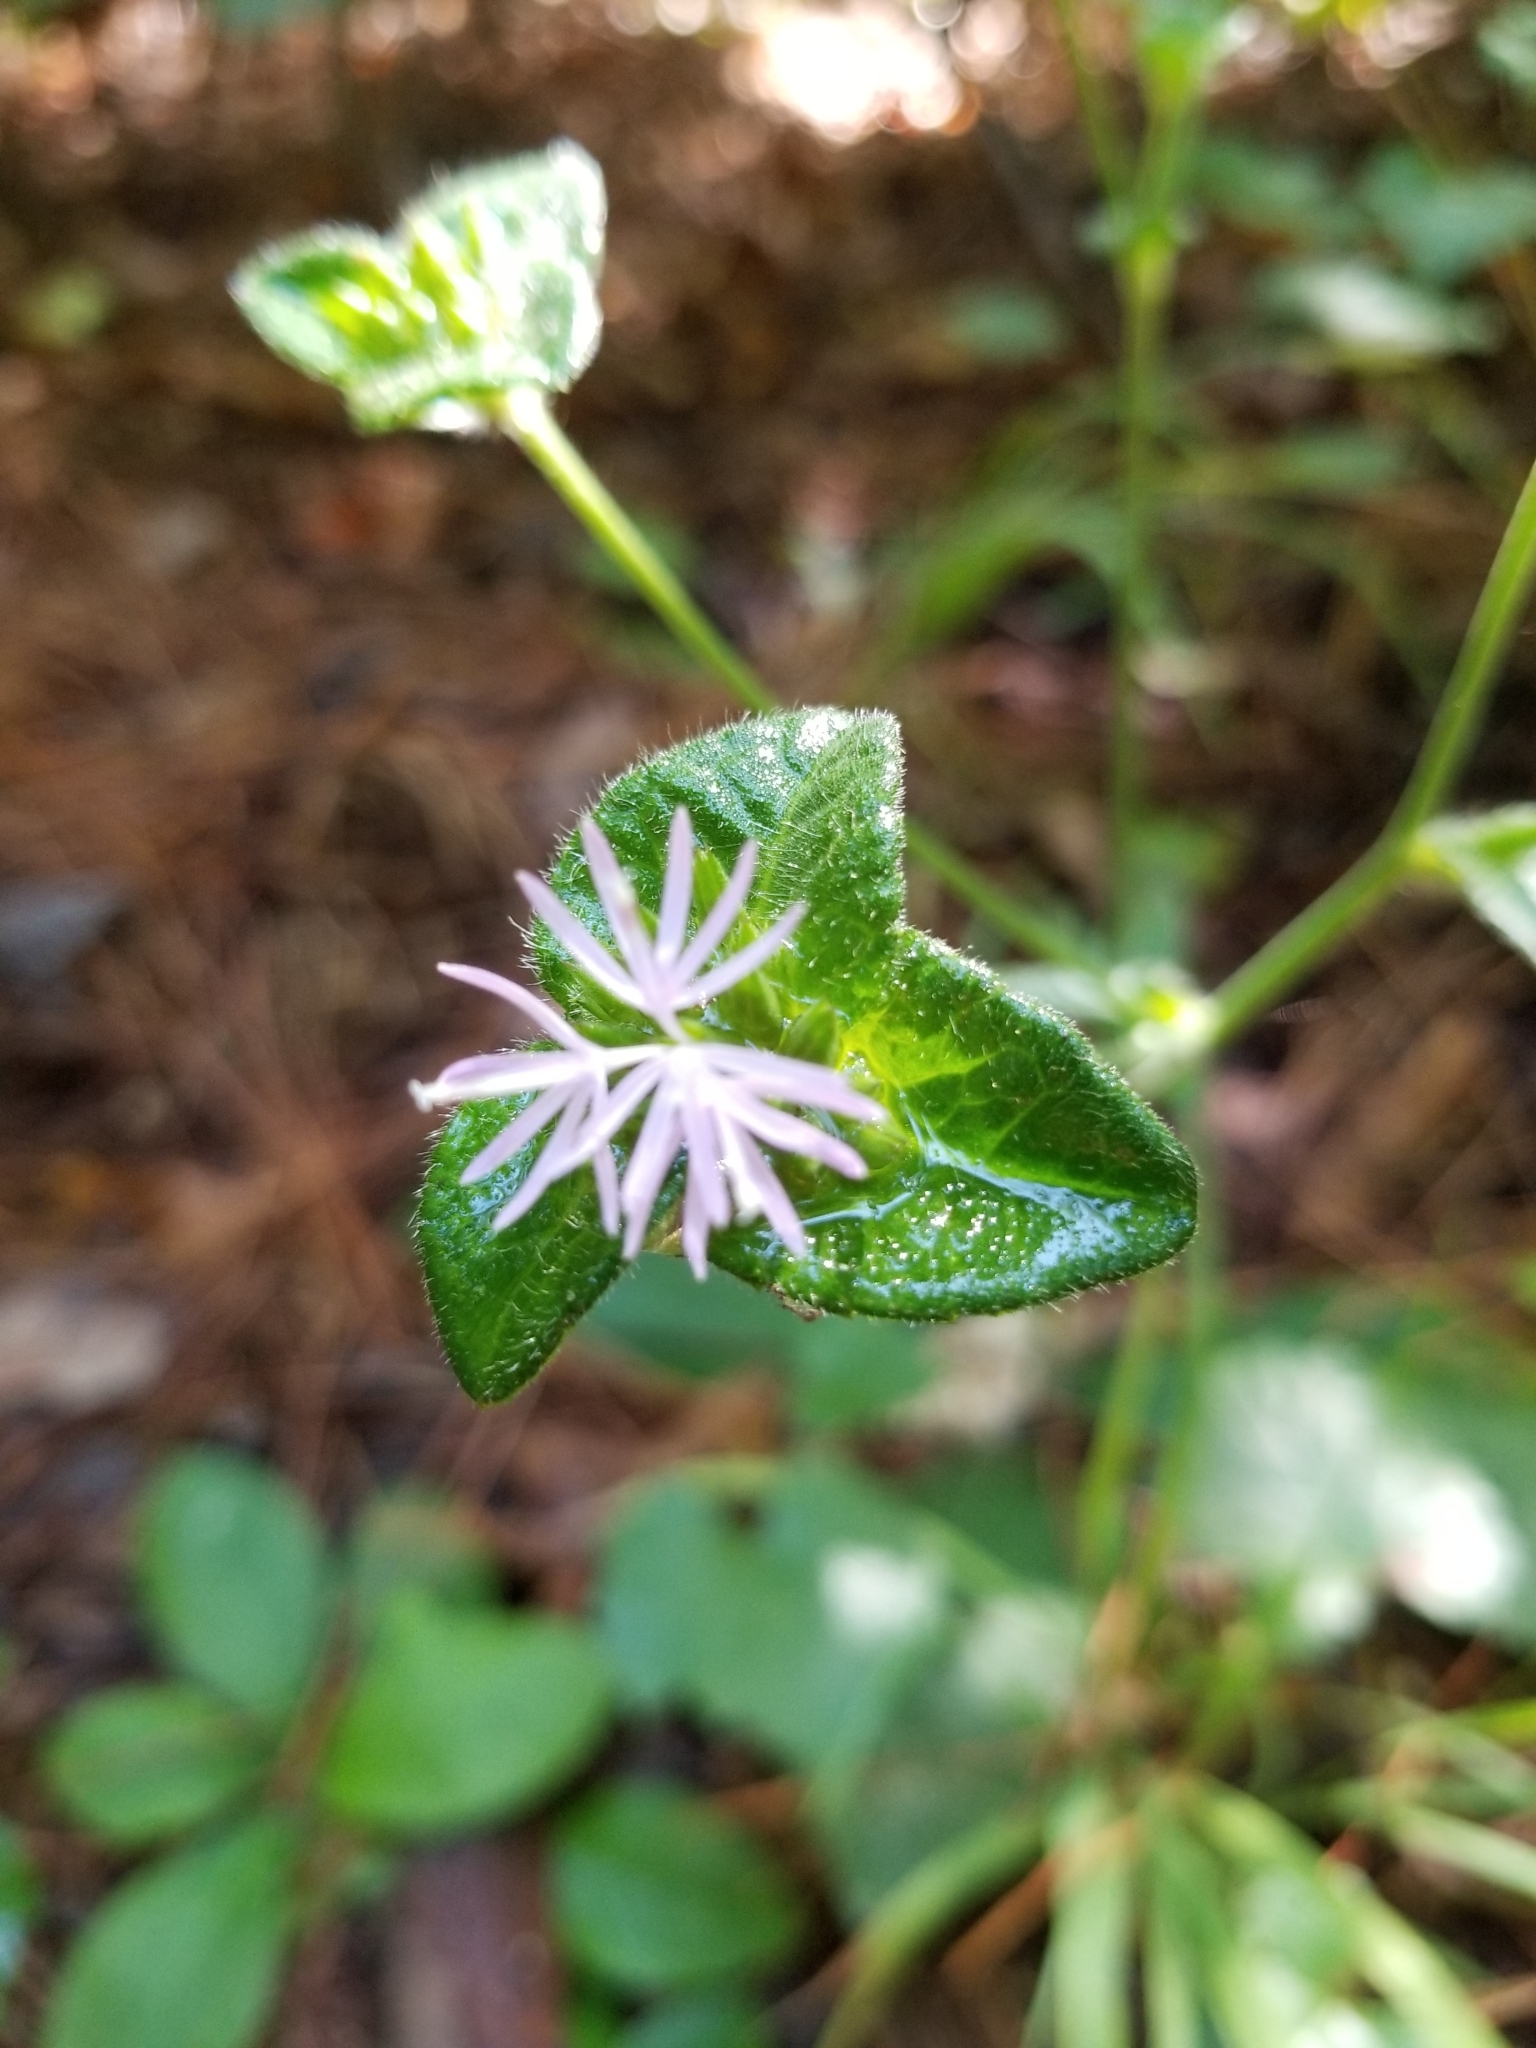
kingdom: Plantae
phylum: Tracheophyta
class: Magnoliopsida
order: Asterales
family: Asteraceae
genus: Elephantopus
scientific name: Elephantopus tomentosus
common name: Tobacco-weed
